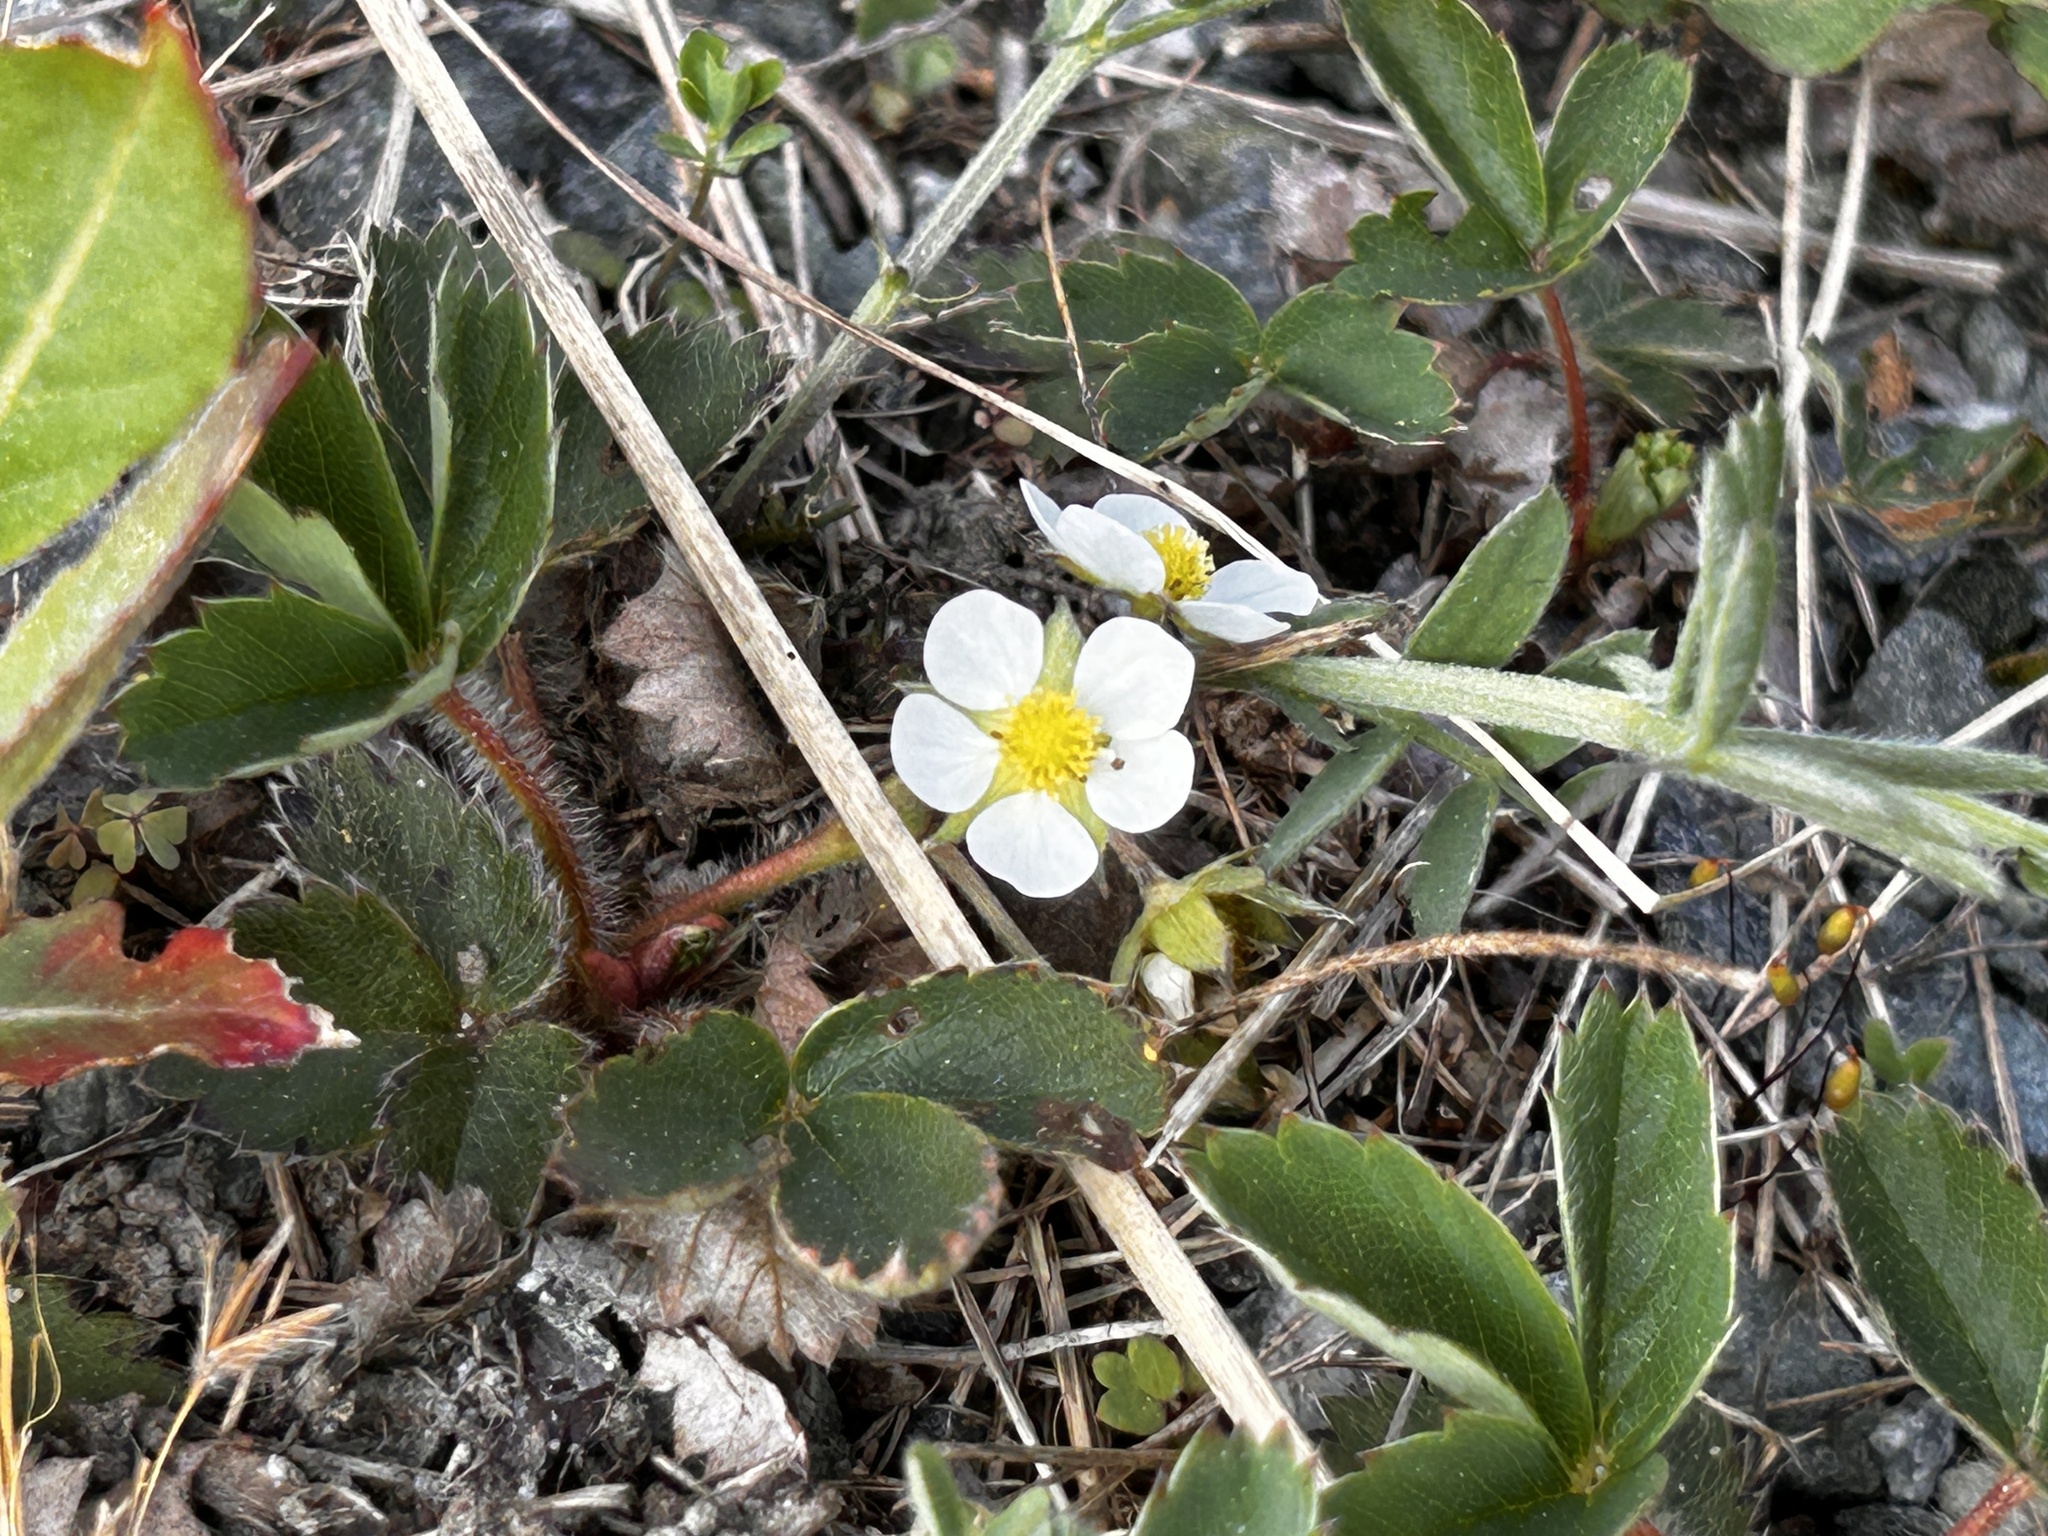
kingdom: Plantae
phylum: Tracheophyta
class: Magnoliopsida
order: Rosales
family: Rosaceae
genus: Fragaria
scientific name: Fragaria virginiana
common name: Thickleaved wild strawberry
